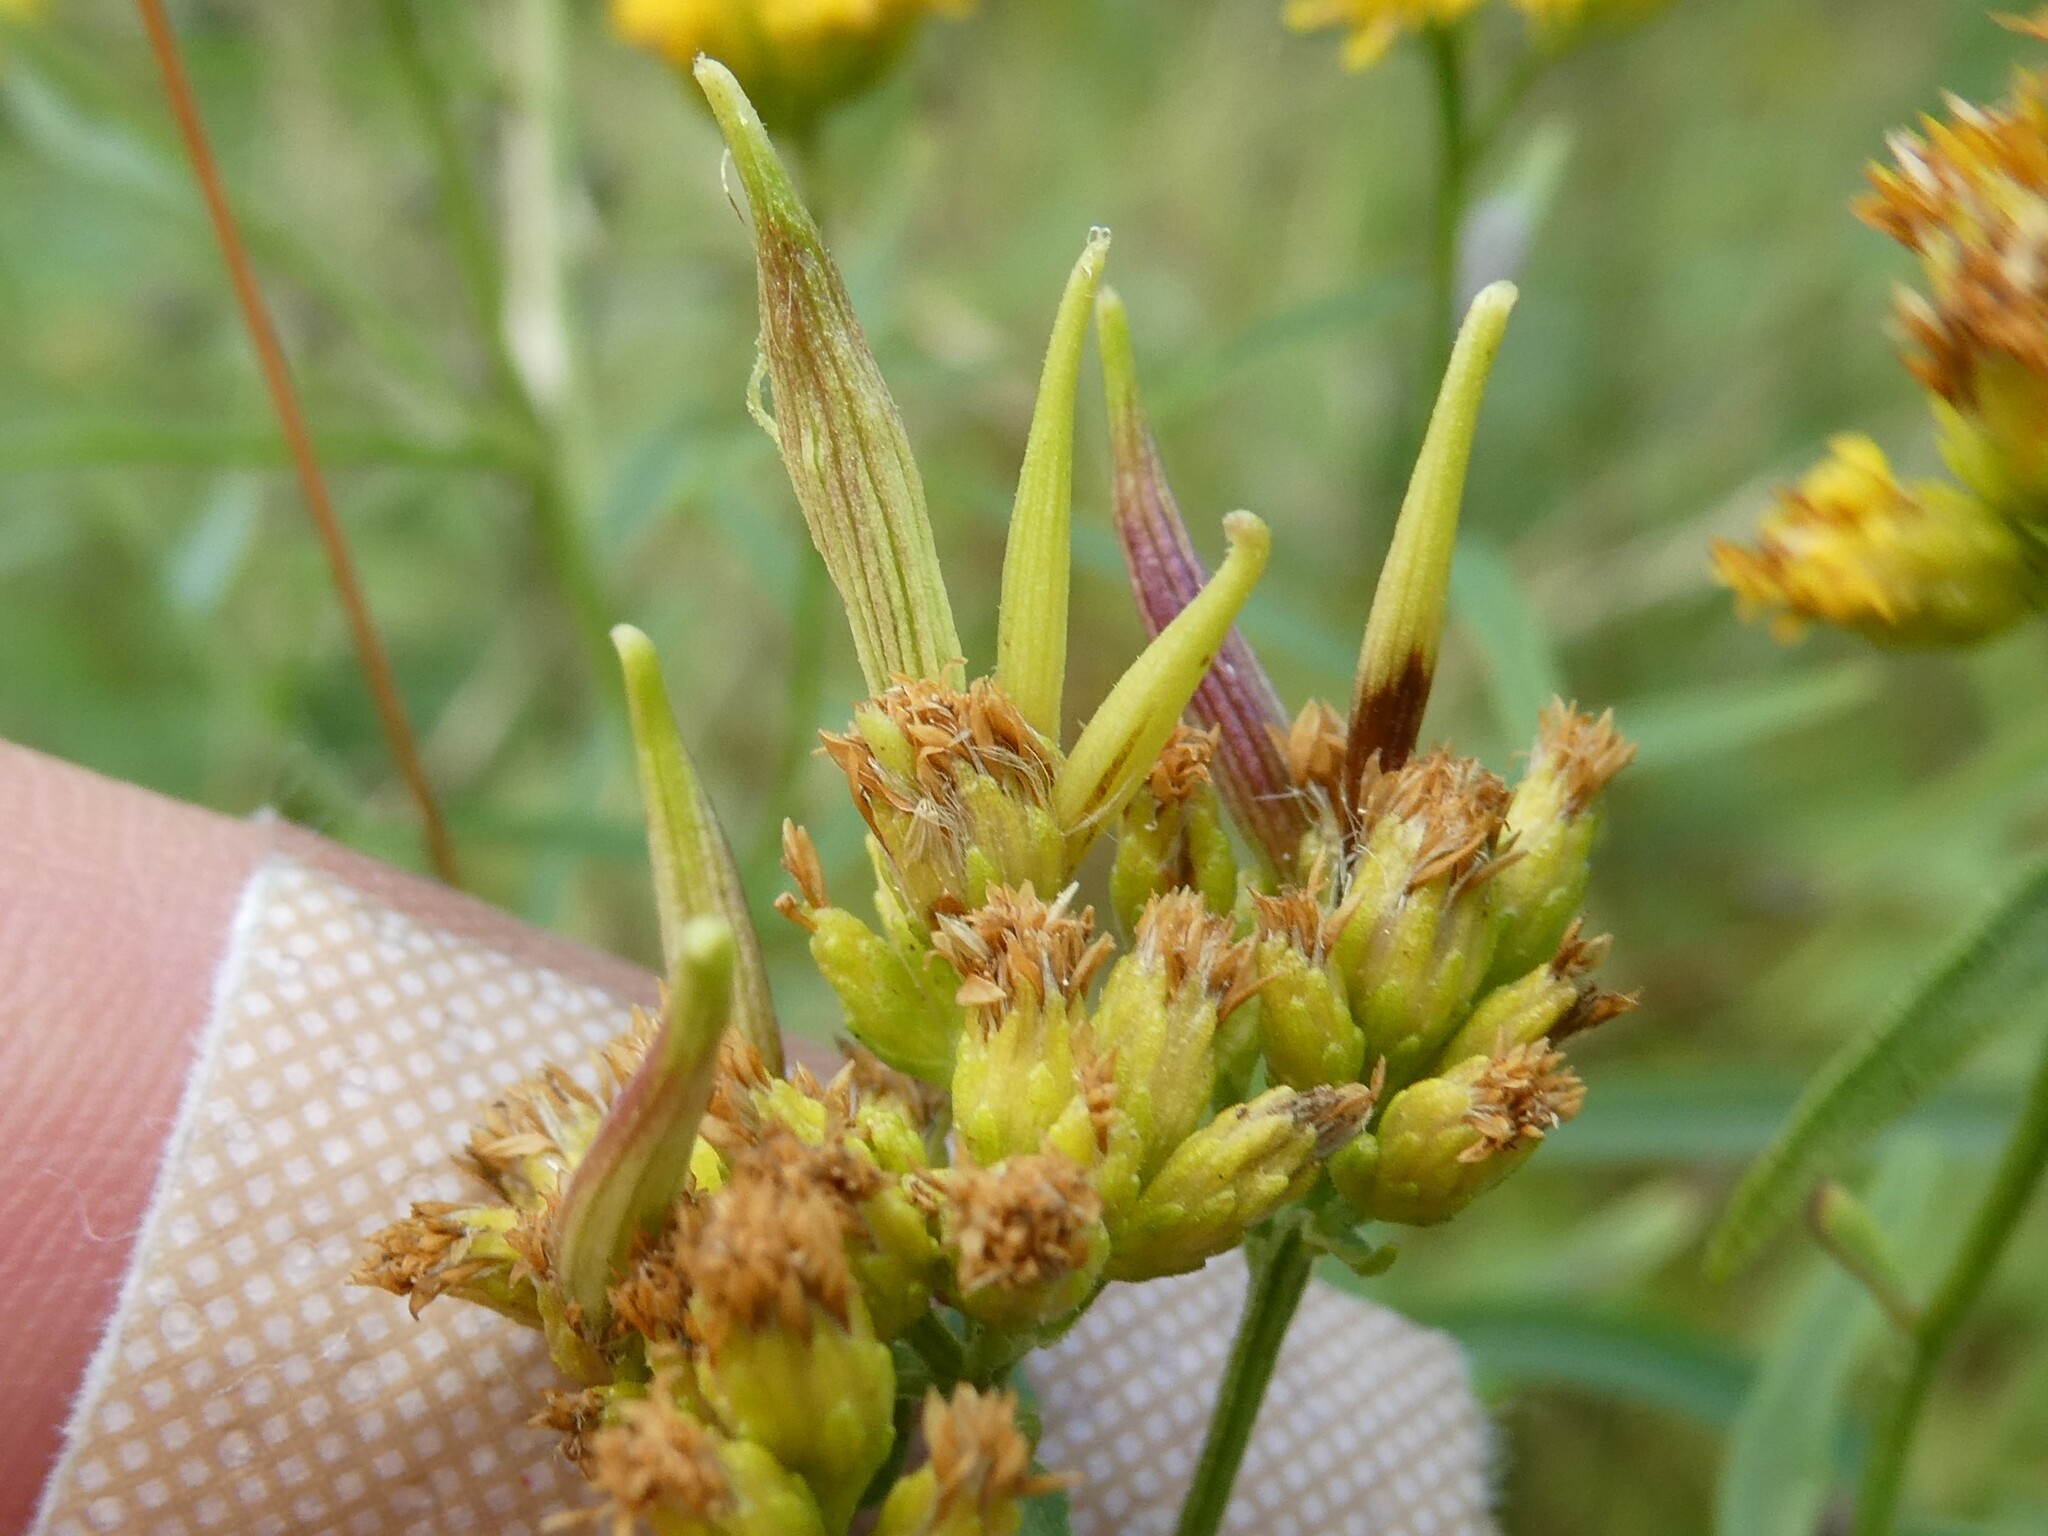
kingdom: Animalia
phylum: Arthropoda
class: Insecta
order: Diptera
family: Cecidomyiidae
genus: Rhopalomyia
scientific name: Rhopalomyia fusiformae
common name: Goldentop sessile gall midge
